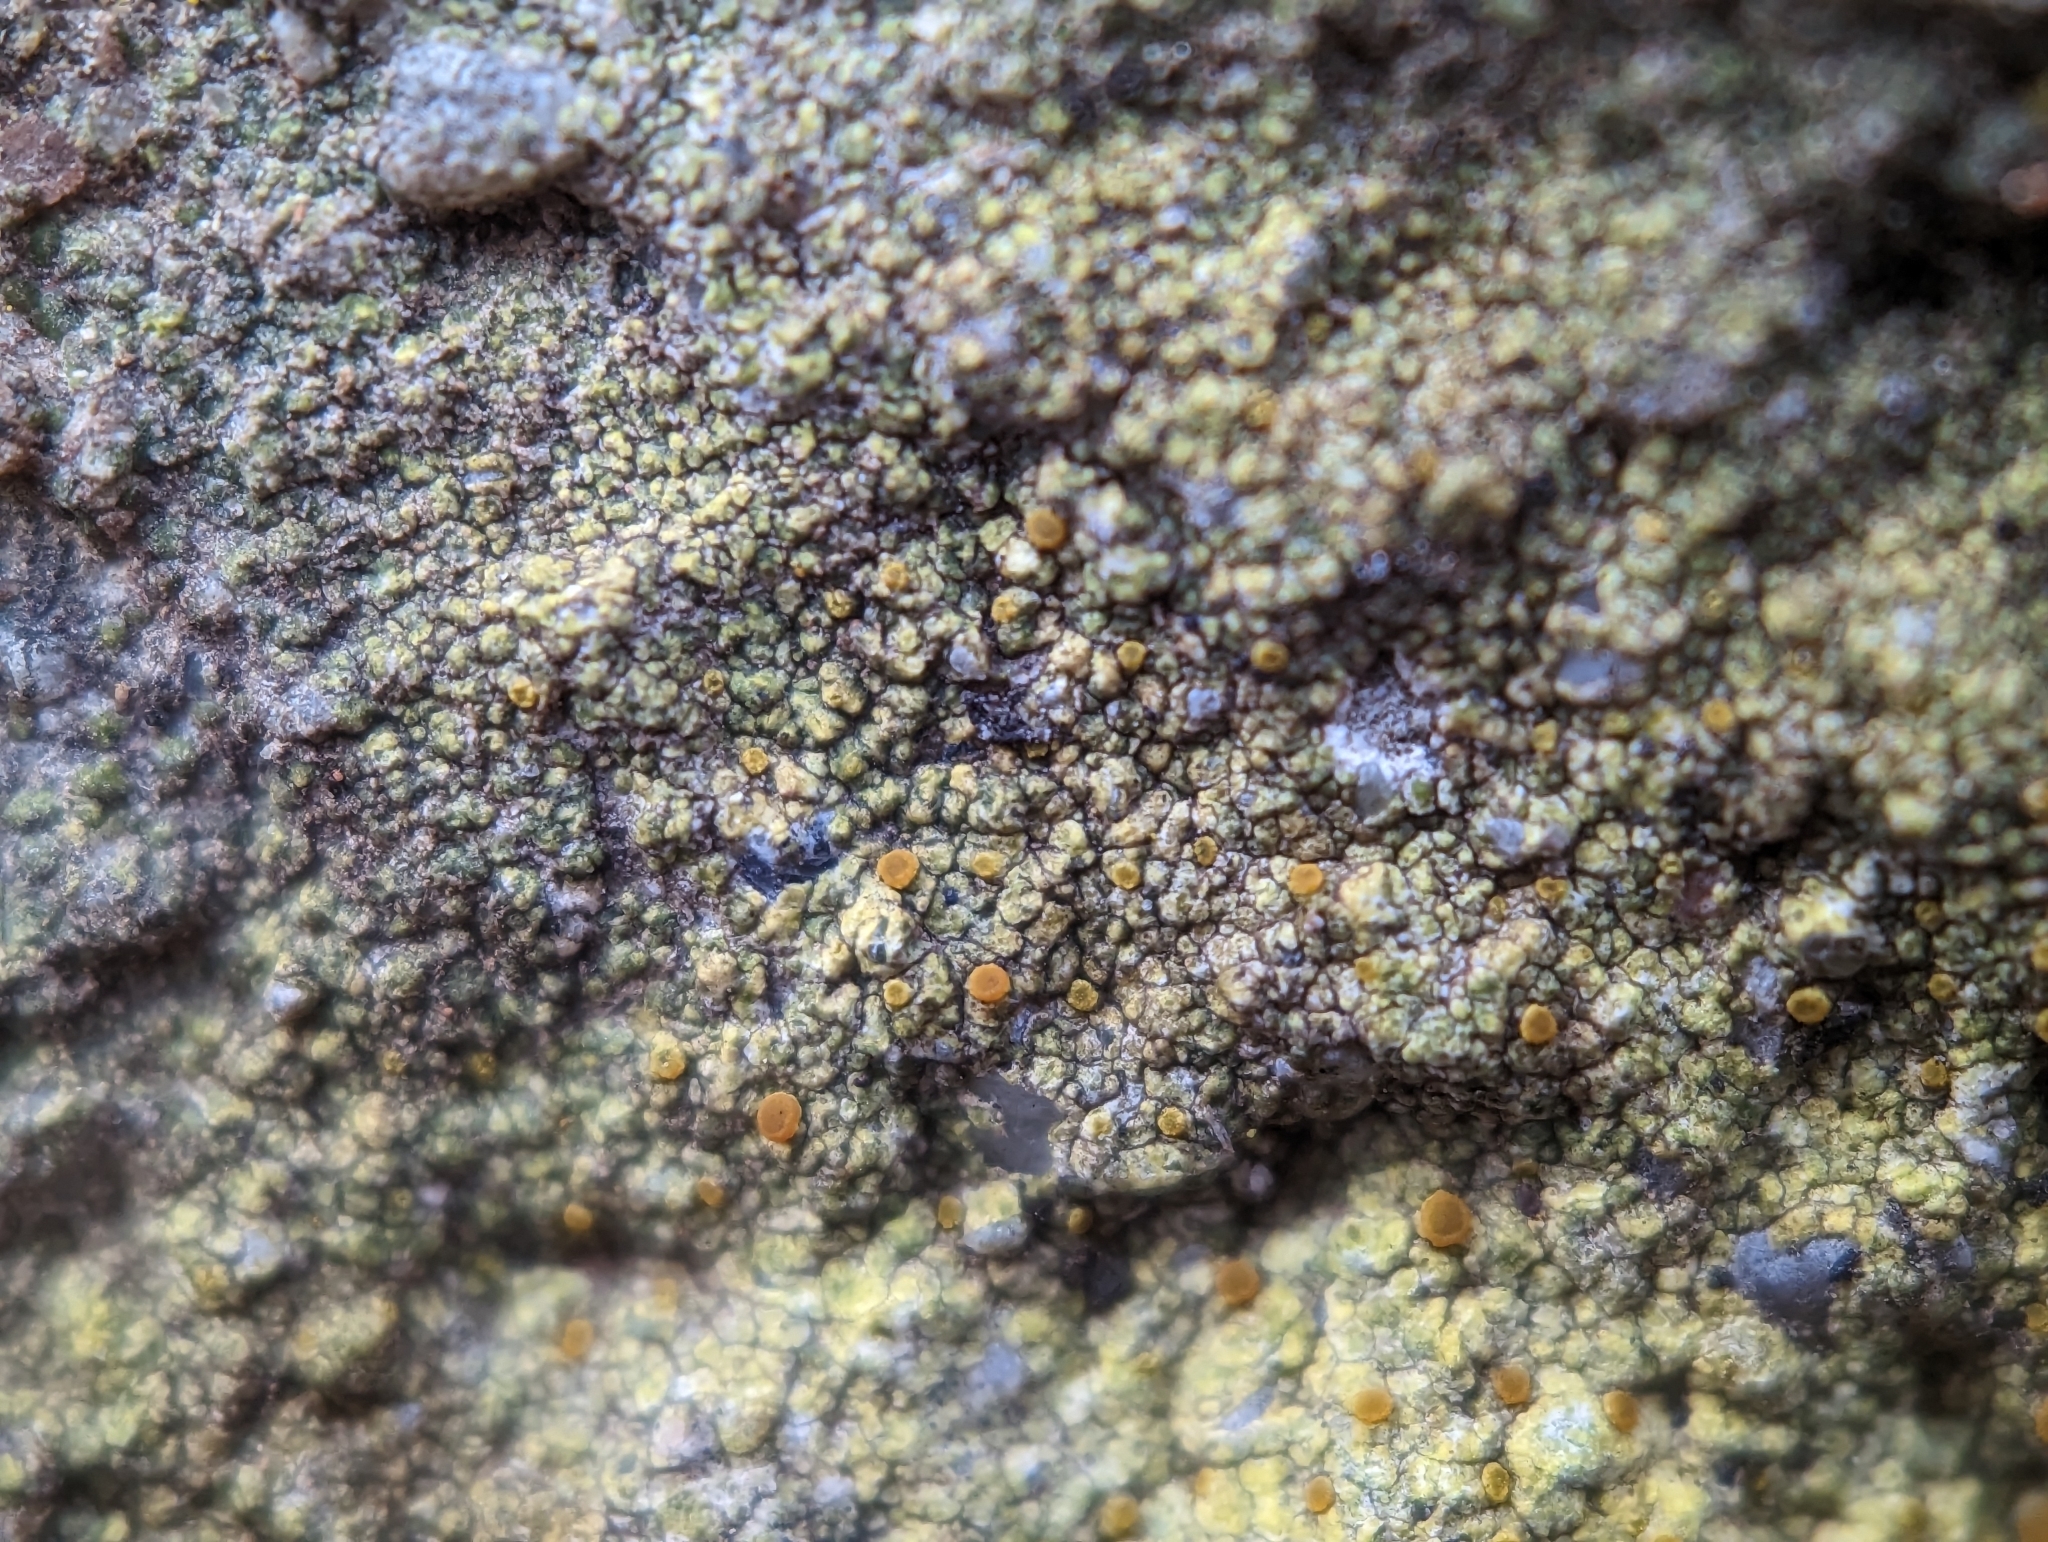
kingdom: Fungi
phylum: Ascomycota
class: Lecanoromycetes
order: Teloschistales
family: Teloschistaceae
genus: Gyalolechia
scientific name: Gyalolechia flavovirescens
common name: Sulphur firedot
